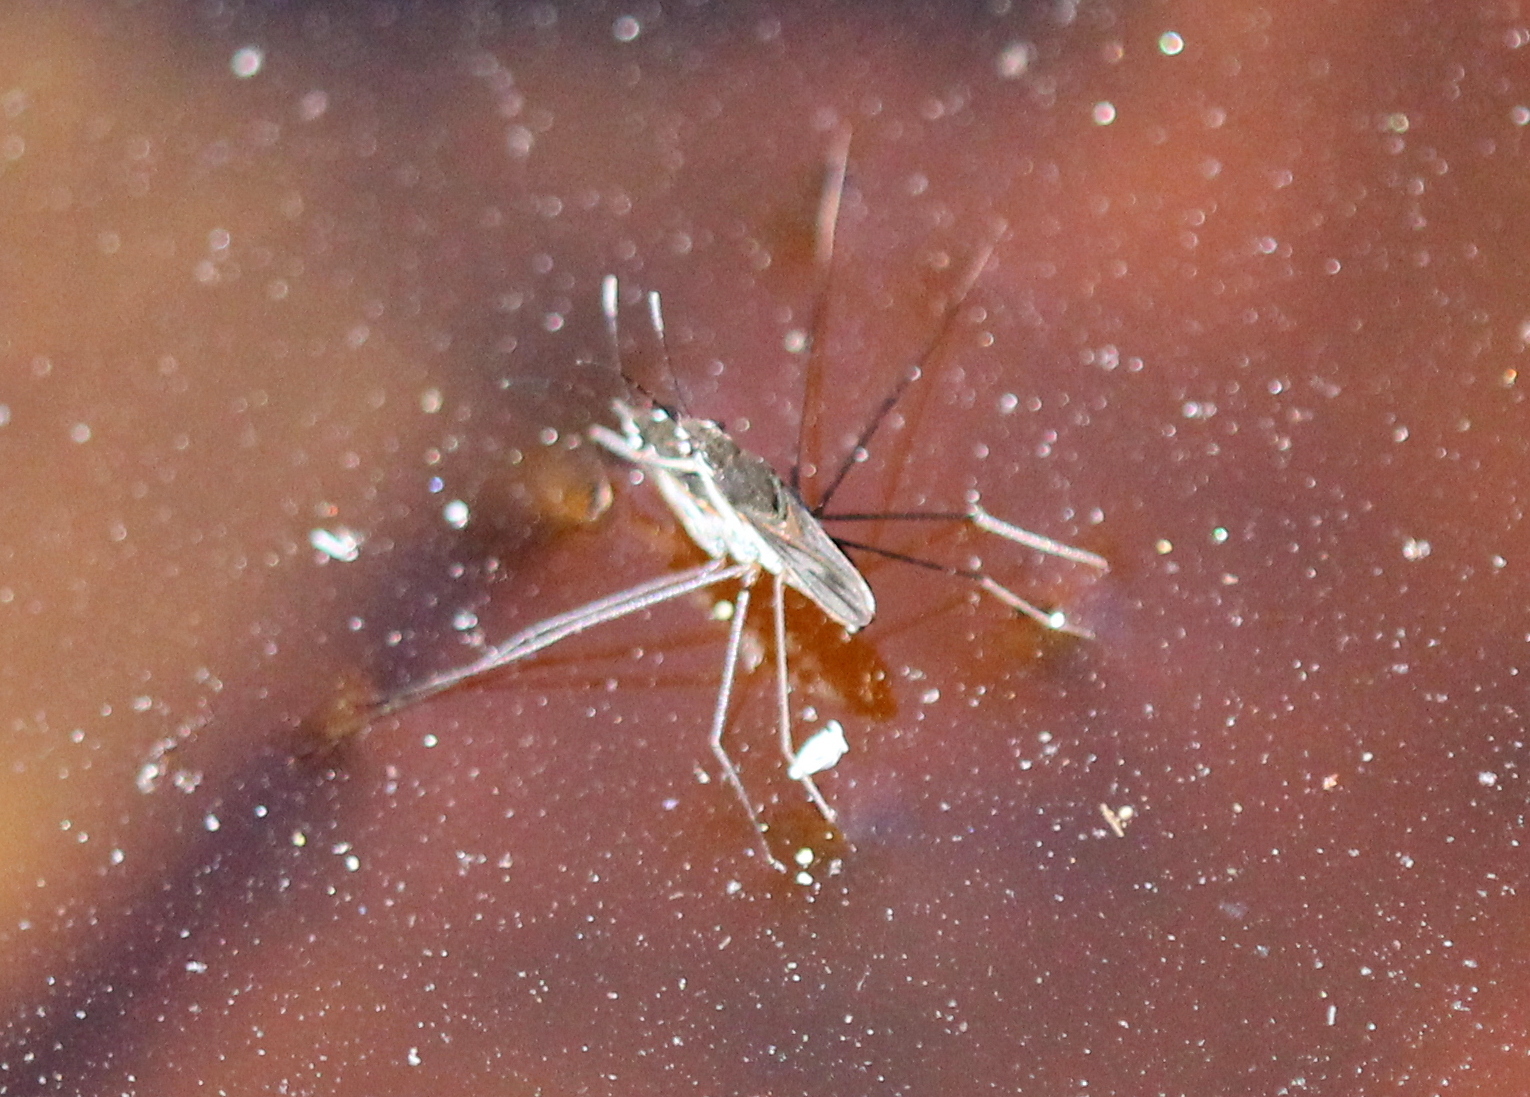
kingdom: Animalia
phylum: Arthropoda
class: Insecta
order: Hemiptera
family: Gerridae
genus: Gerris
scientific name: Gerris
